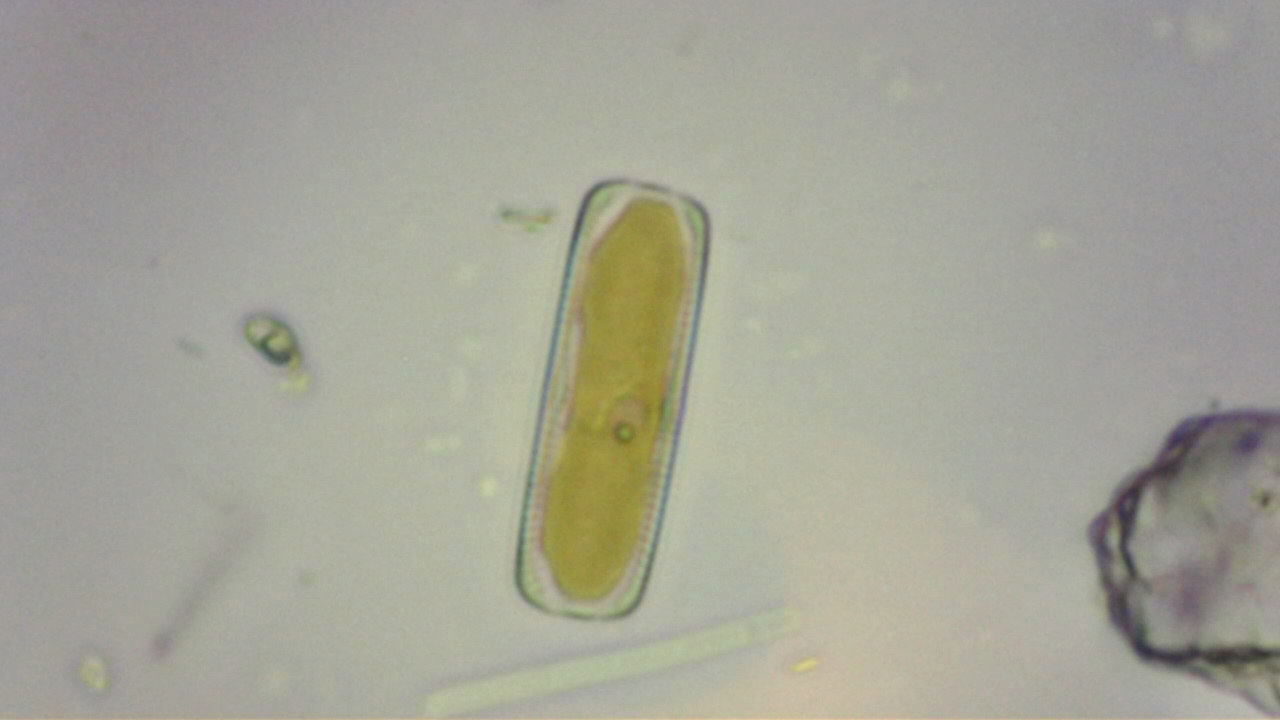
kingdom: Chromista
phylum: Ochrophyta
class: Bacillariophyceae
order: Naviculales
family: Pinnulariaceae
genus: Pinnularia
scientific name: Pinnularia
